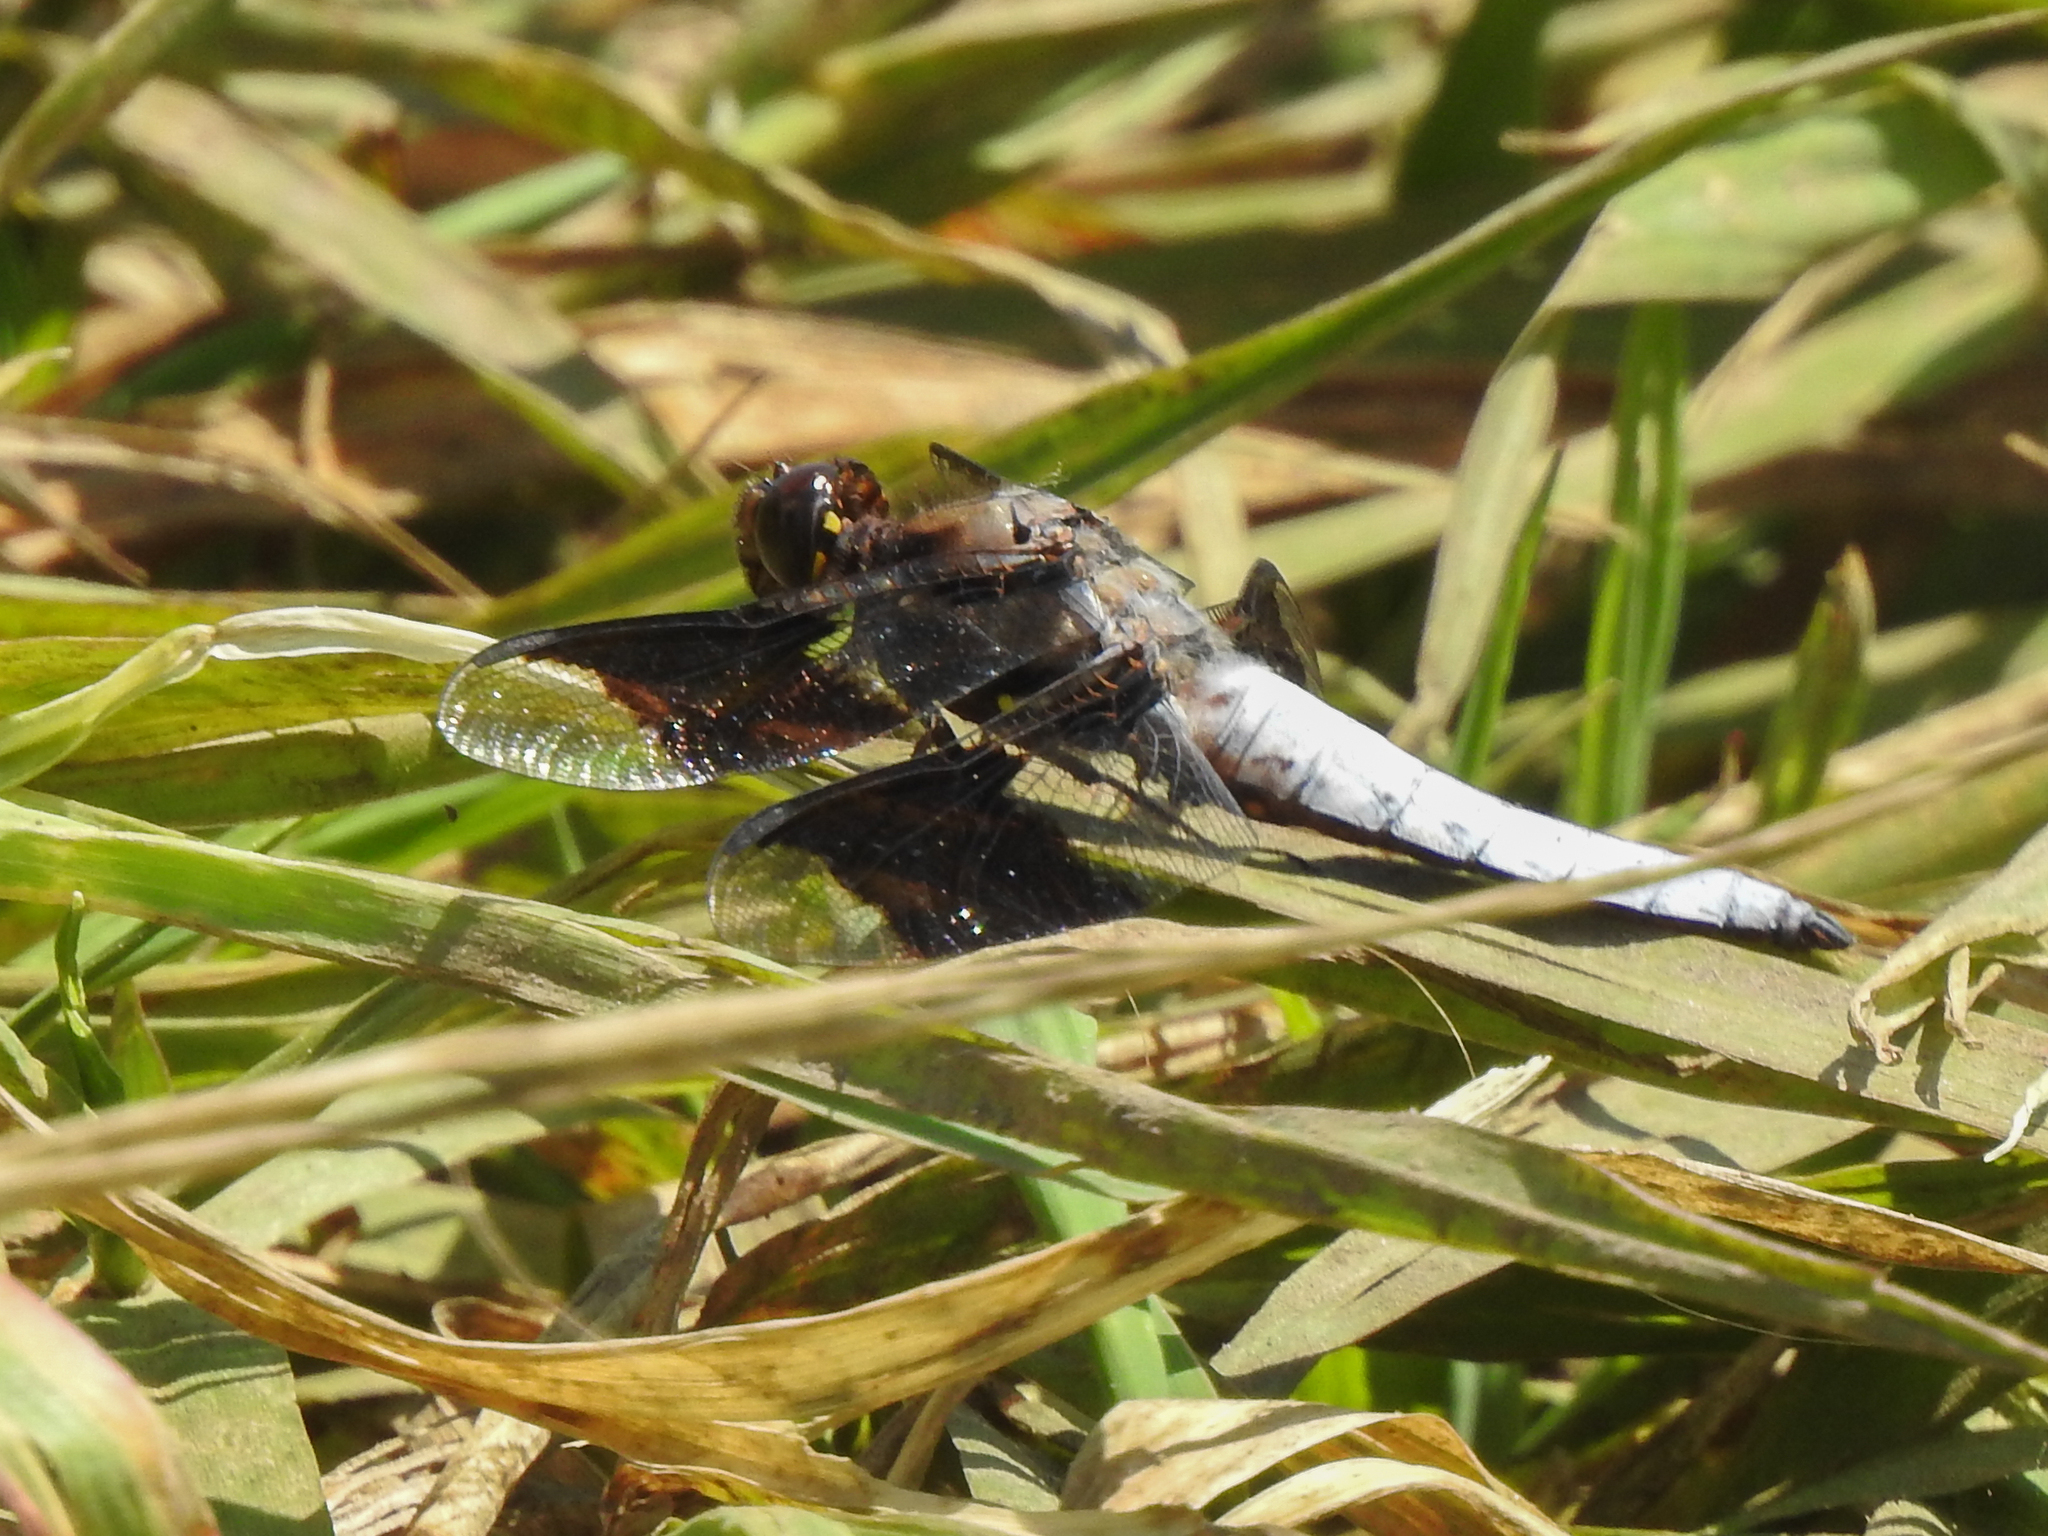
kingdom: Animalia
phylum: Arthropoda
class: Insecta
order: Odonata
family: Libellulidae
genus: Plathemis
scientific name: Plathemis lydia
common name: Common whitetail
